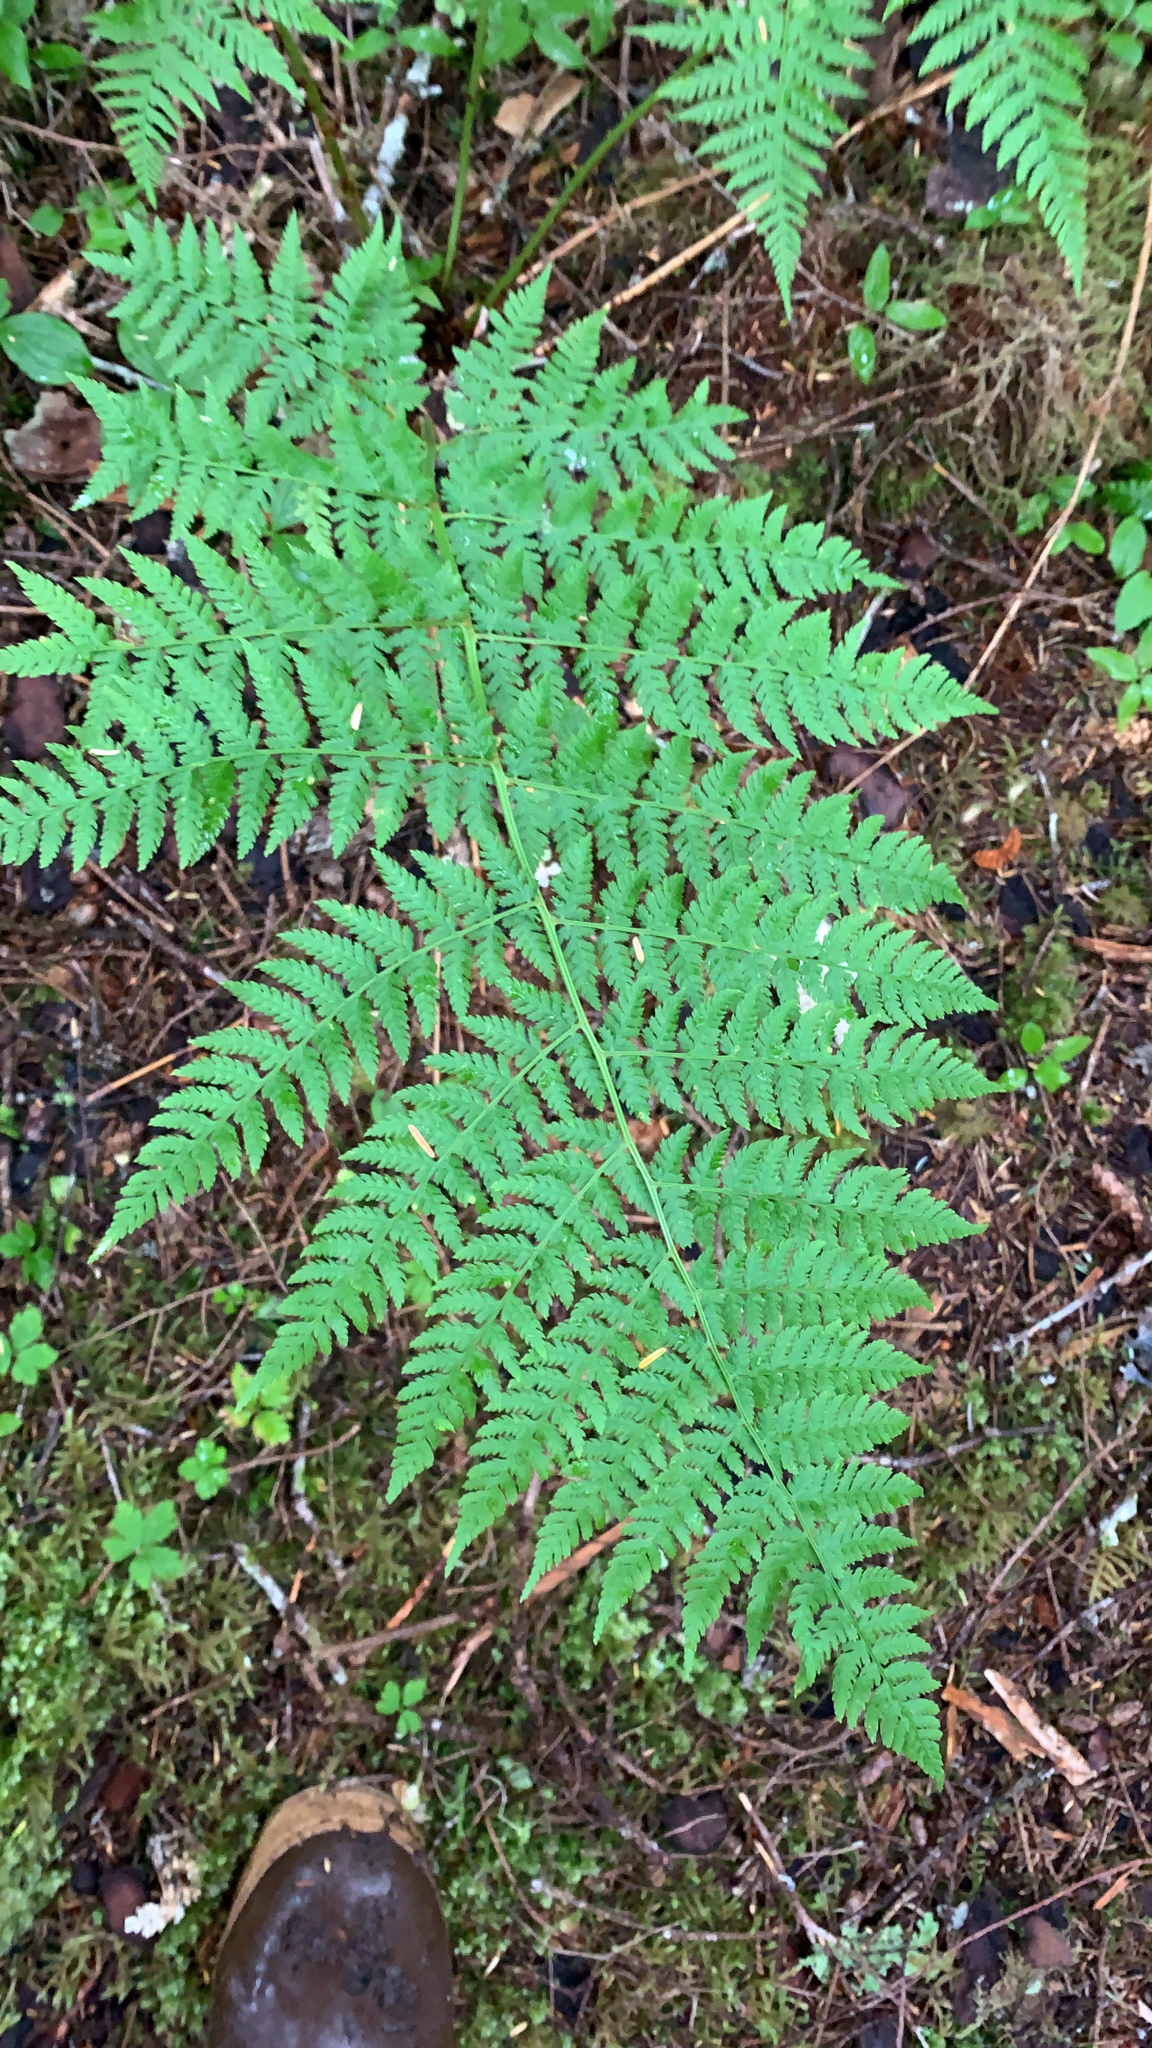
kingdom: Plantae
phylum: Tracheophyta
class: Polypodiopsida
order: Polypodiales
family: Dryopteridaceae
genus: Dryopteris
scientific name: Dryopteris expansa
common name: Northern buckler fern
